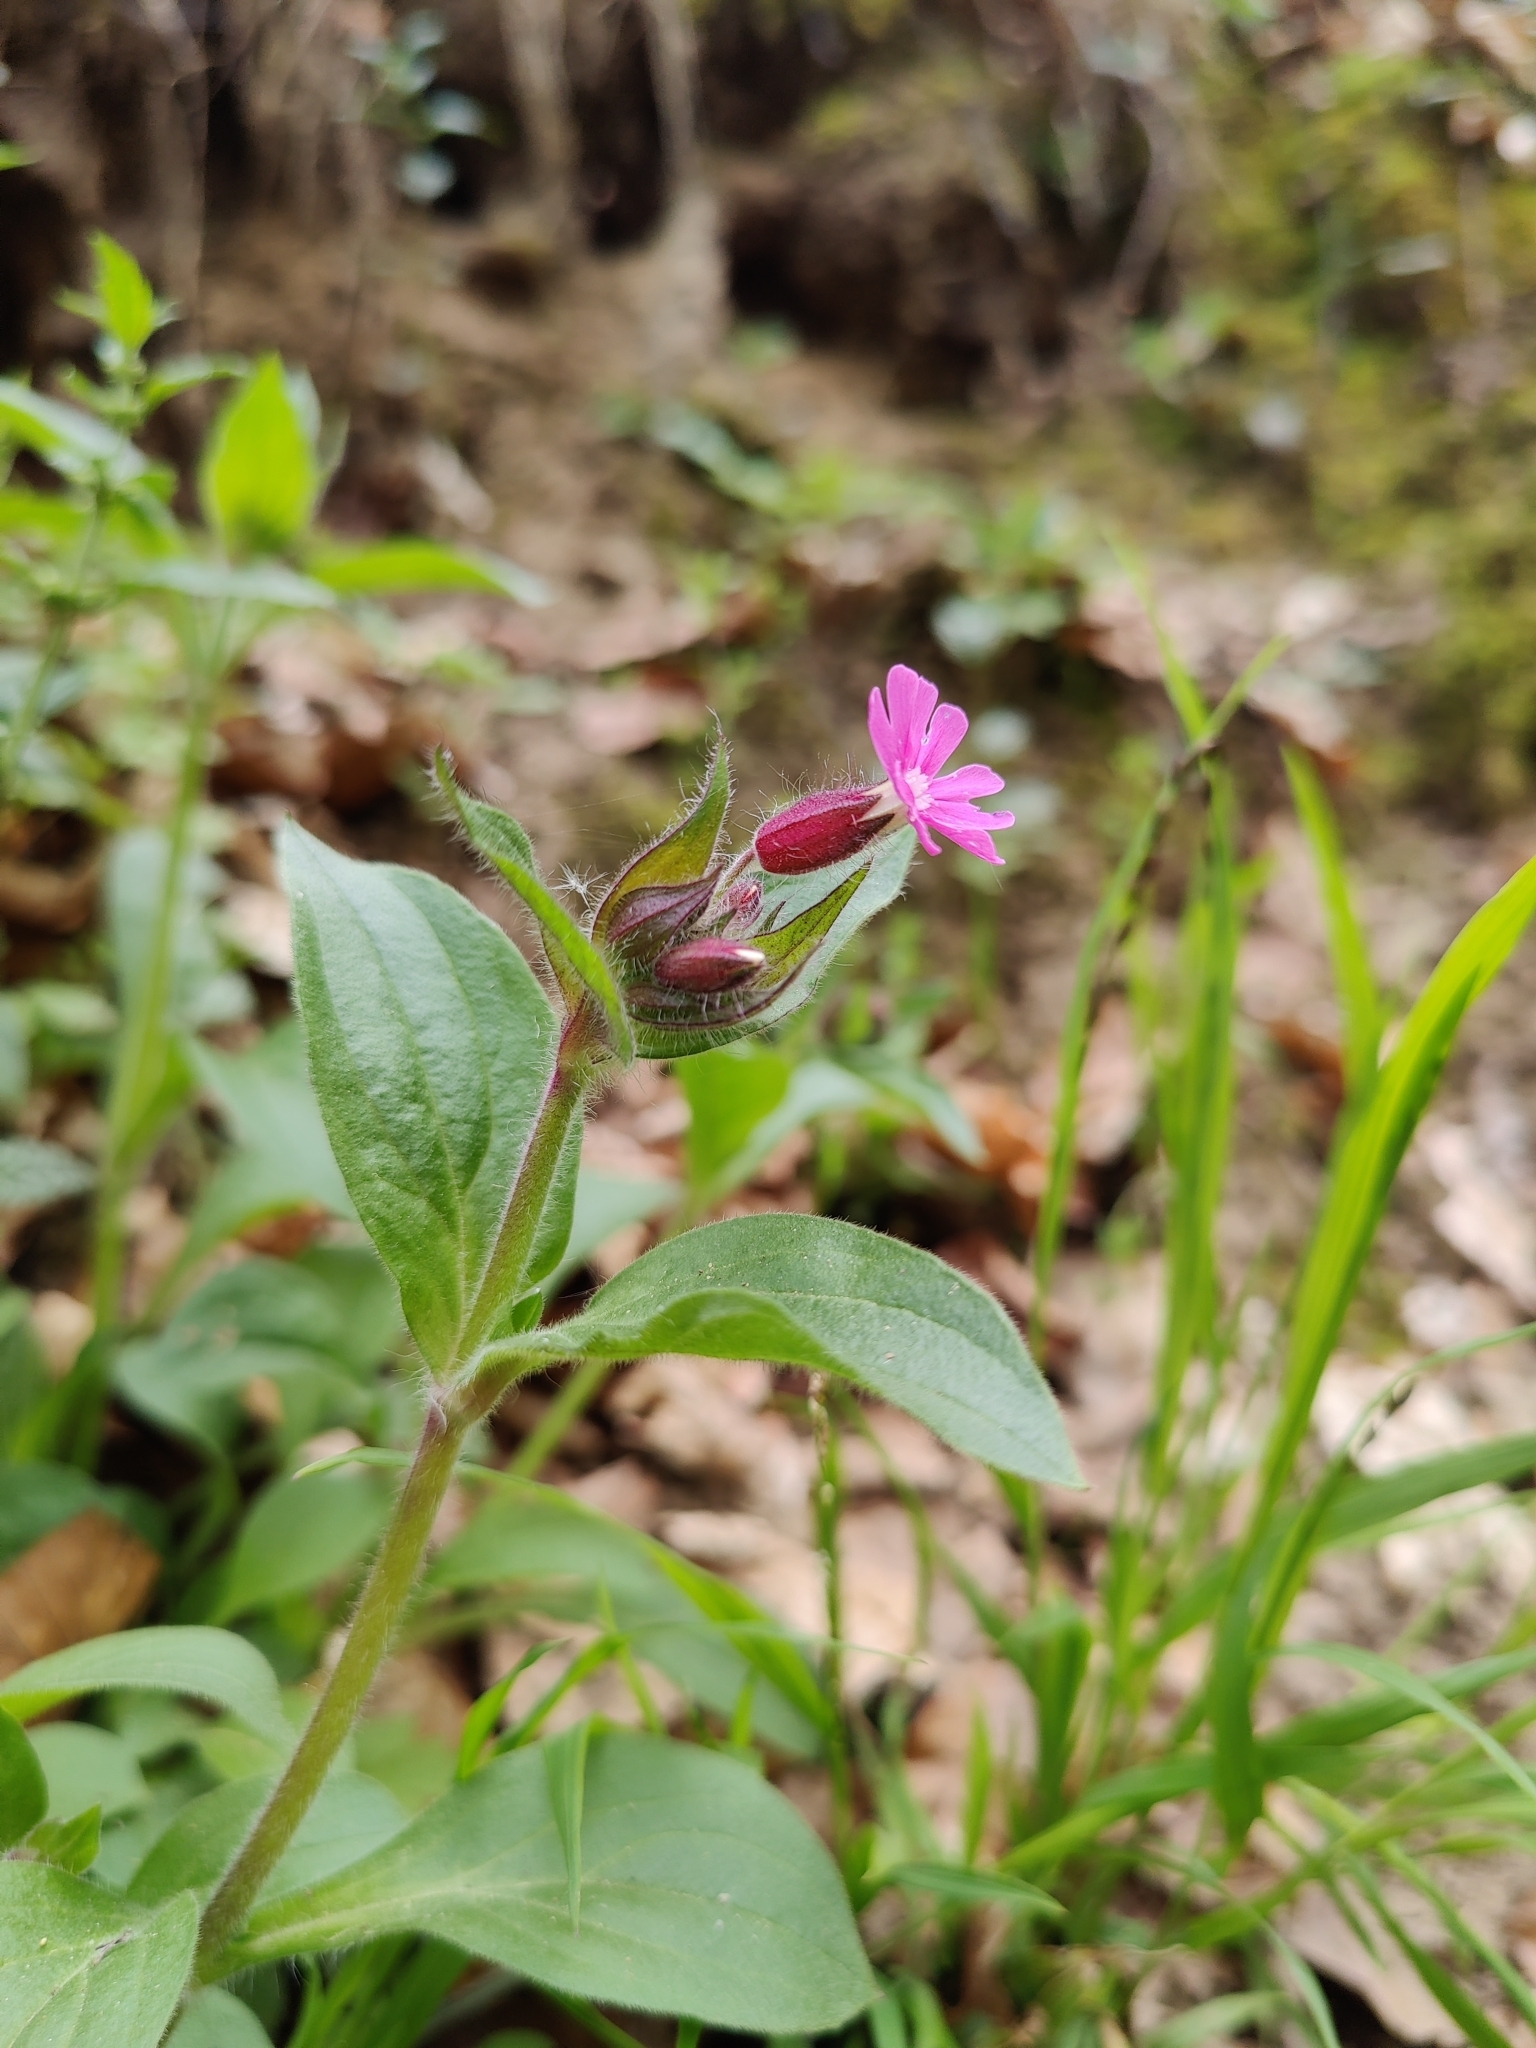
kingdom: Plantae
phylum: Tracheophyta
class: Magnoliopsida
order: Caryophyllales
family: Caryophyllaceae
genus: Silene
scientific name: Silene dioica
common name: Red campion
